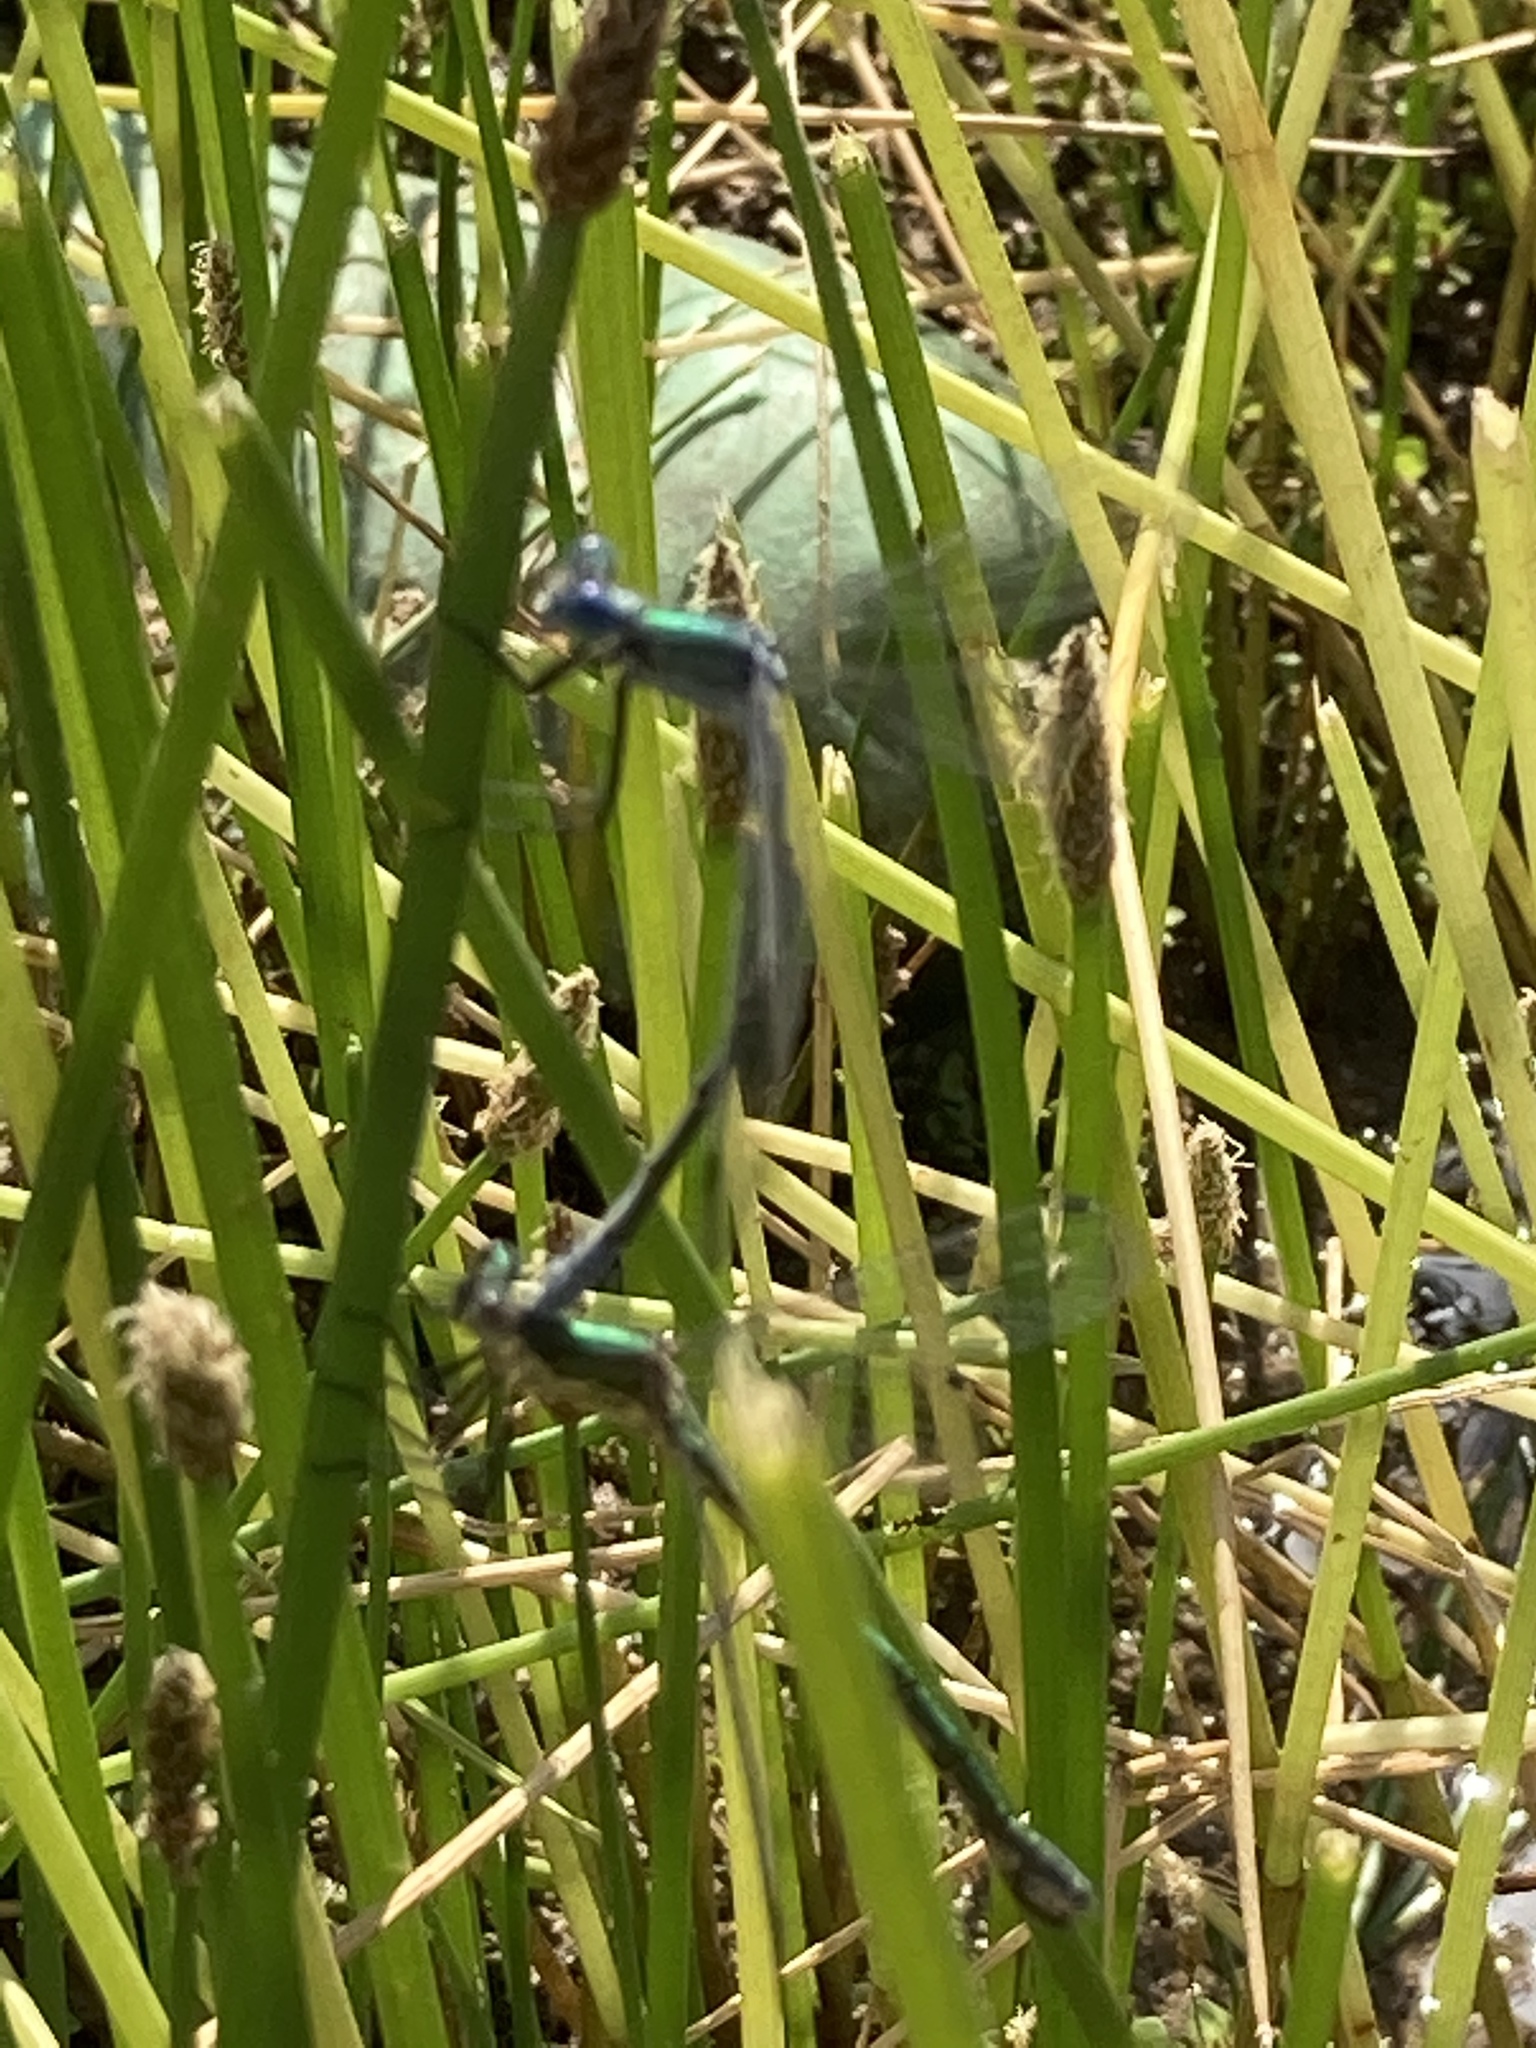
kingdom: Animalia
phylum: Arthropoda
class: Insecta
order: Odonata
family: Lestidae
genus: Lestes
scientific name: Lestes dryas
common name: Scarce emerald damselfly
